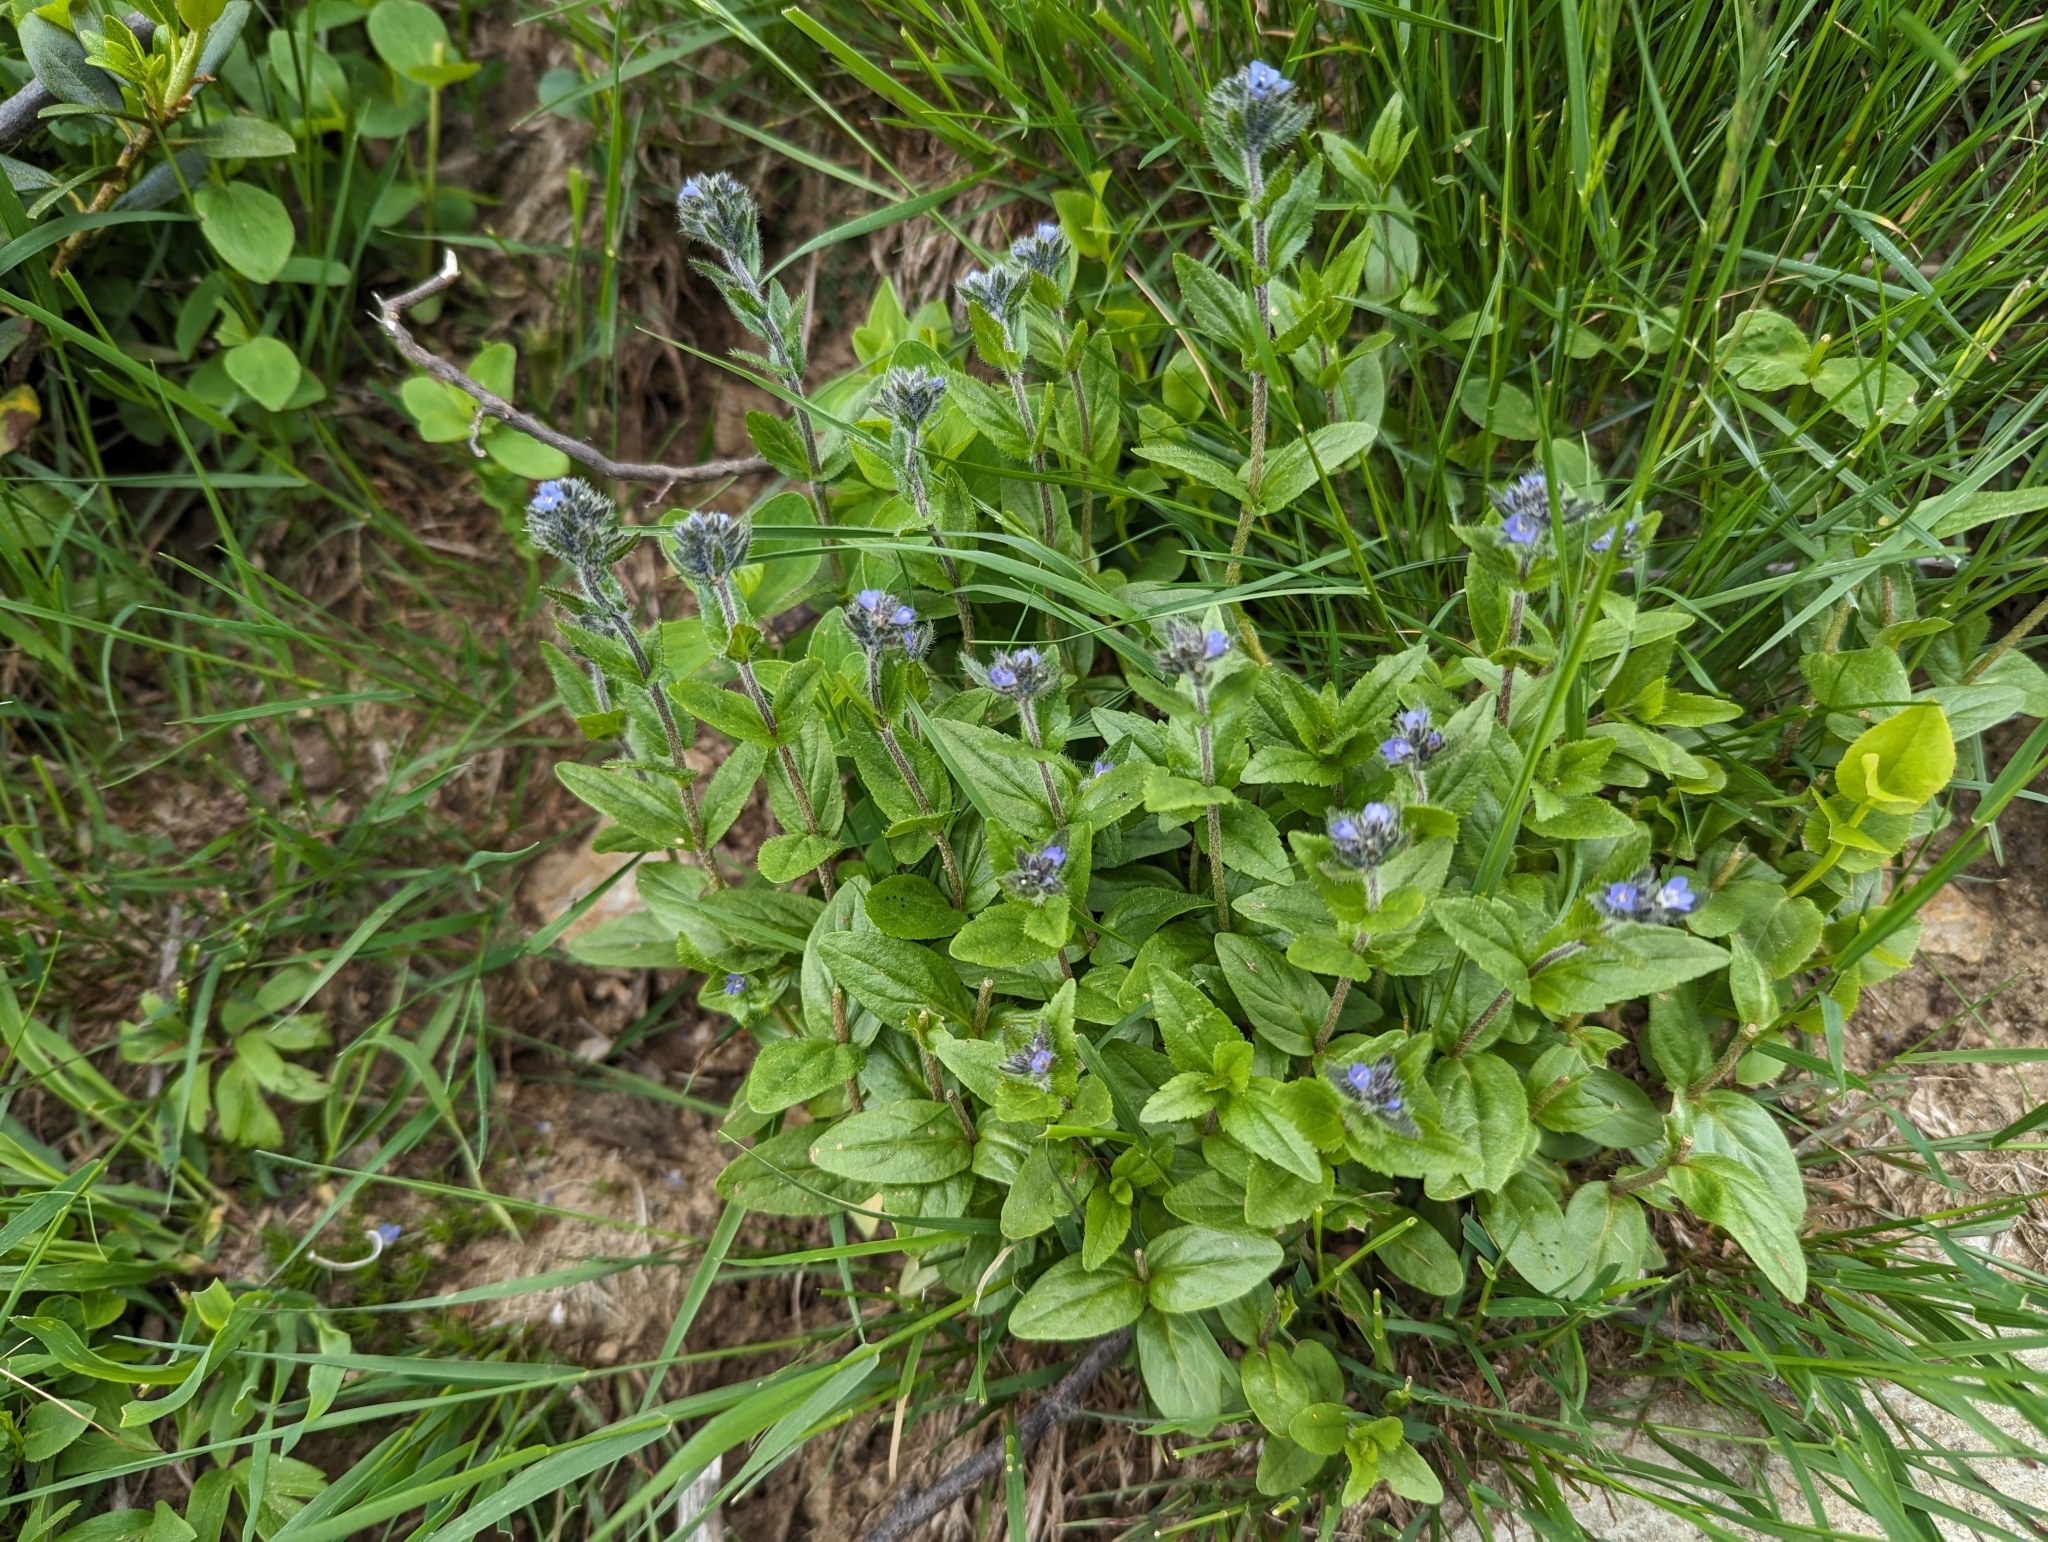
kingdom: Plantae
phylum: Tracheophyta
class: Magnoliopsida
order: Lamiales
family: Plantaginaceae
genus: Veronica
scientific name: Veronica alpina
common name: Alpine speedwell
